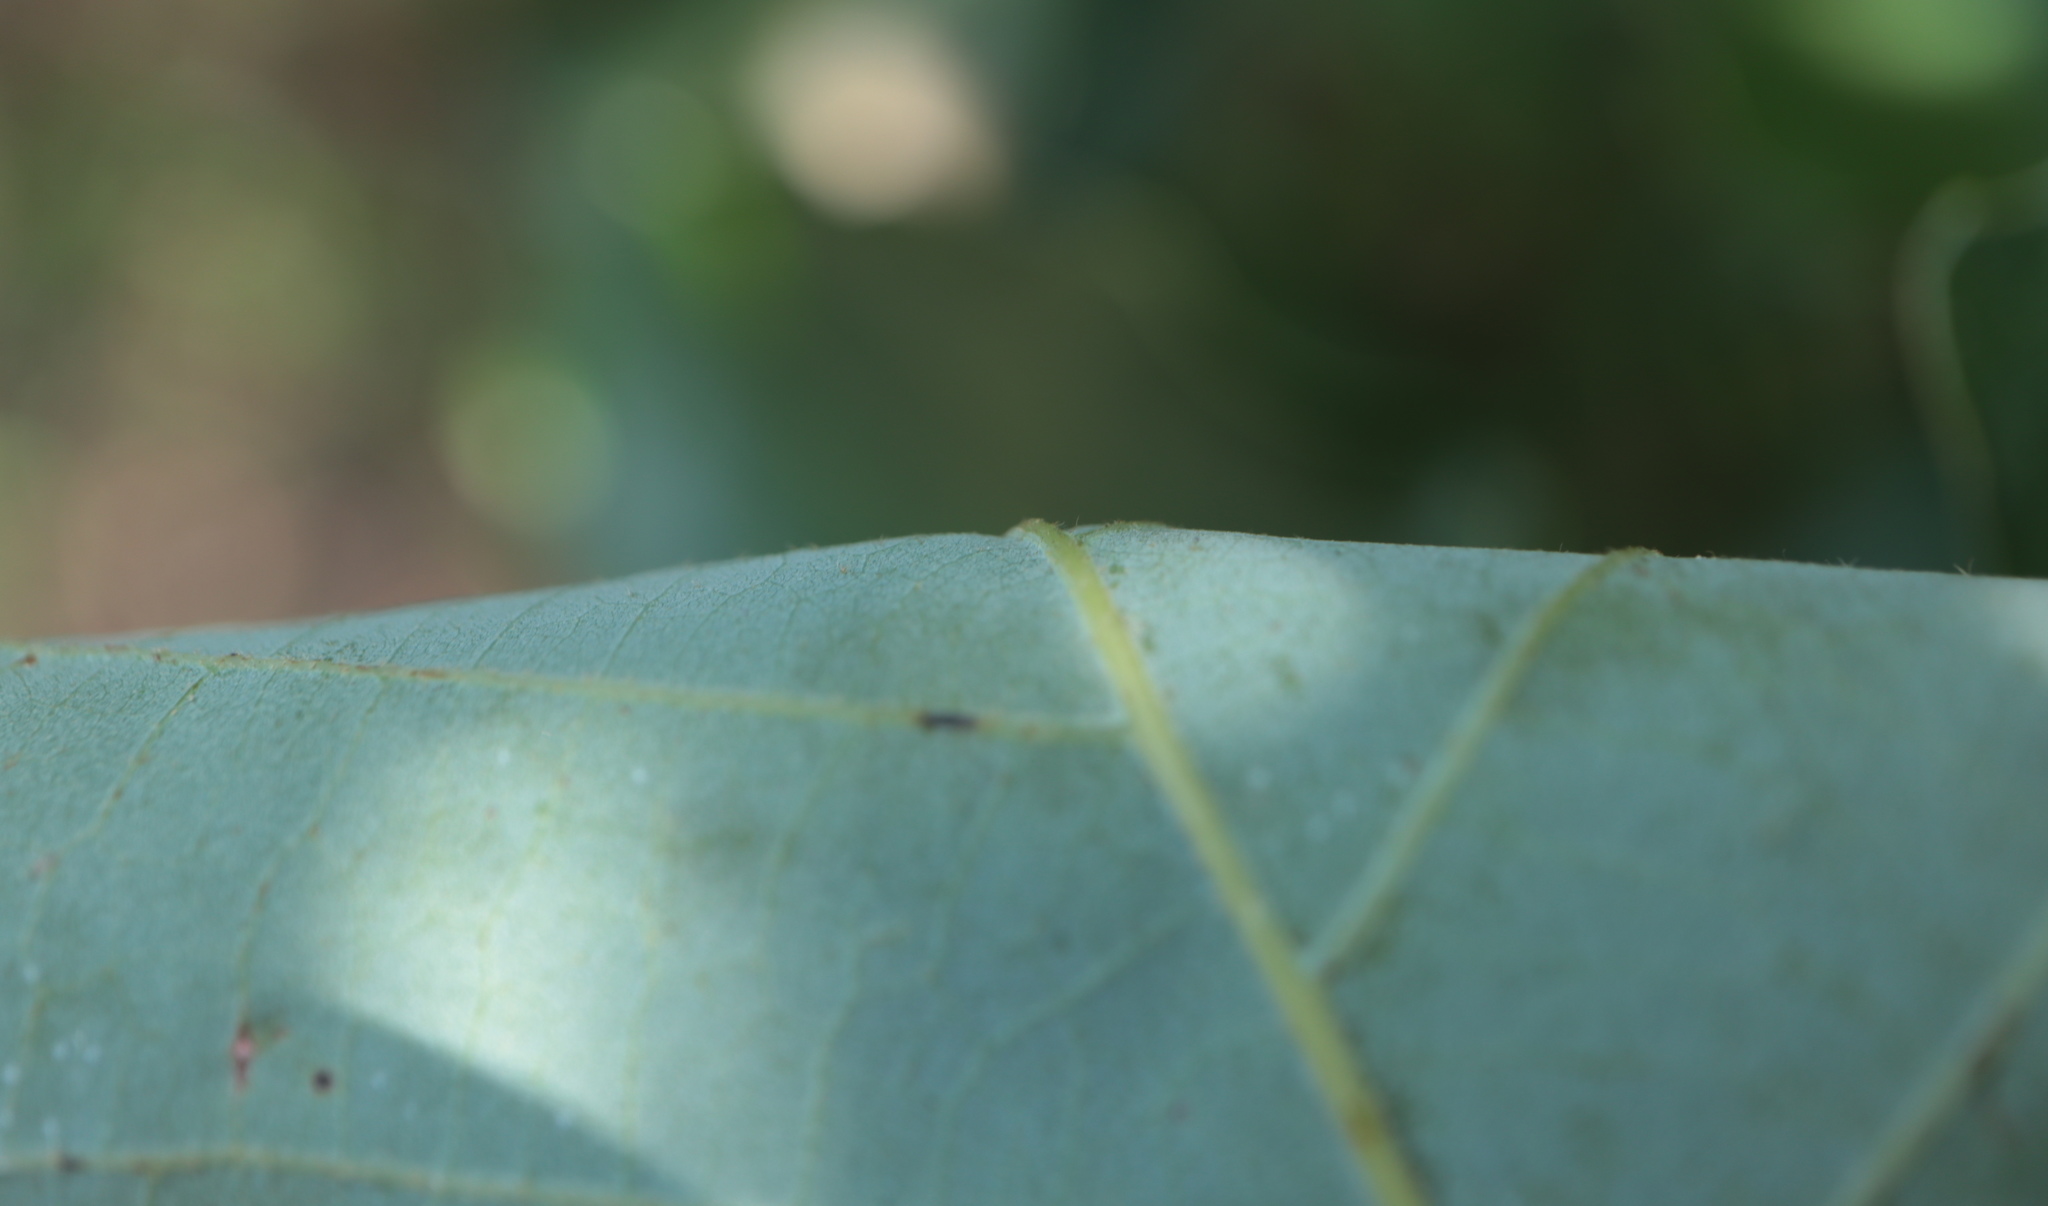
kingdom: Plantae
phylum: Tracheophyta
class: Magnoliopsida
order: Fagales
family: Fagaceae
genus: Quercus
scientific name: Quercus prinoides
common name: Dwarf chinkapin oak
